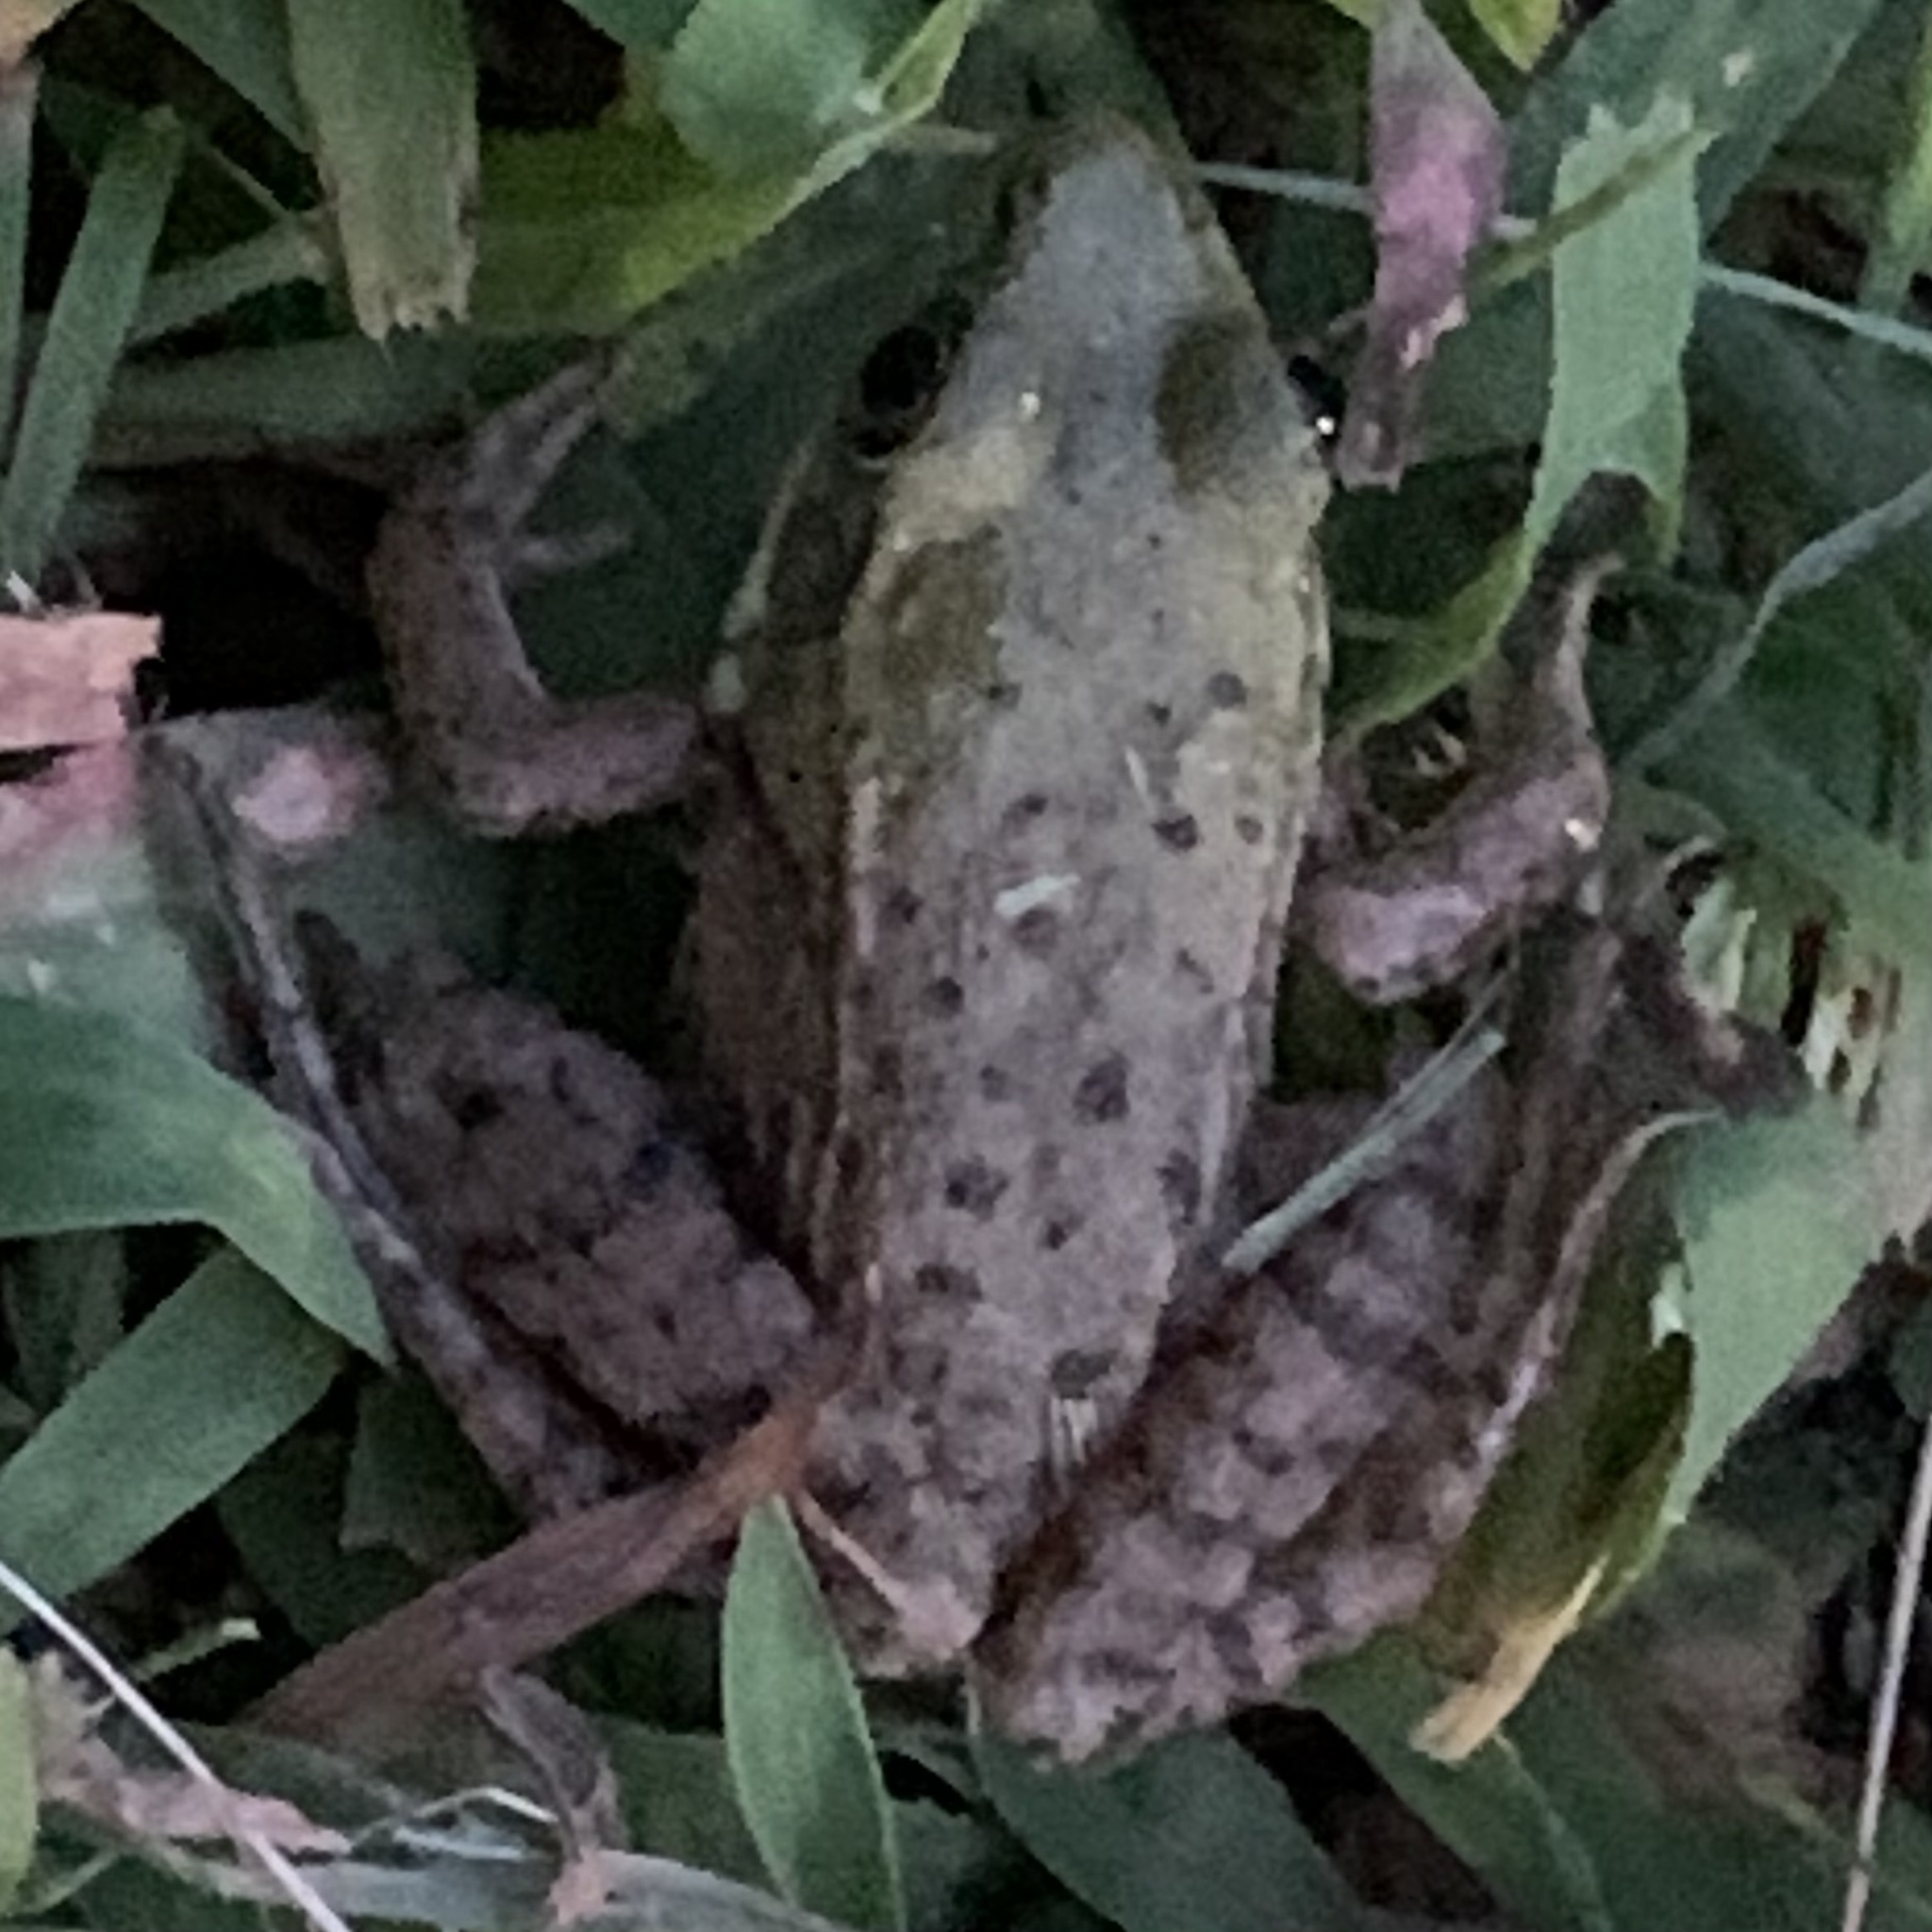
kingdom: Animalia
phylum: Chordata
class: Amphibia
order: Anura
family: Ranidae
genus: Lithobates
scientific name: Lithobates clamitans
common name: Green frog
